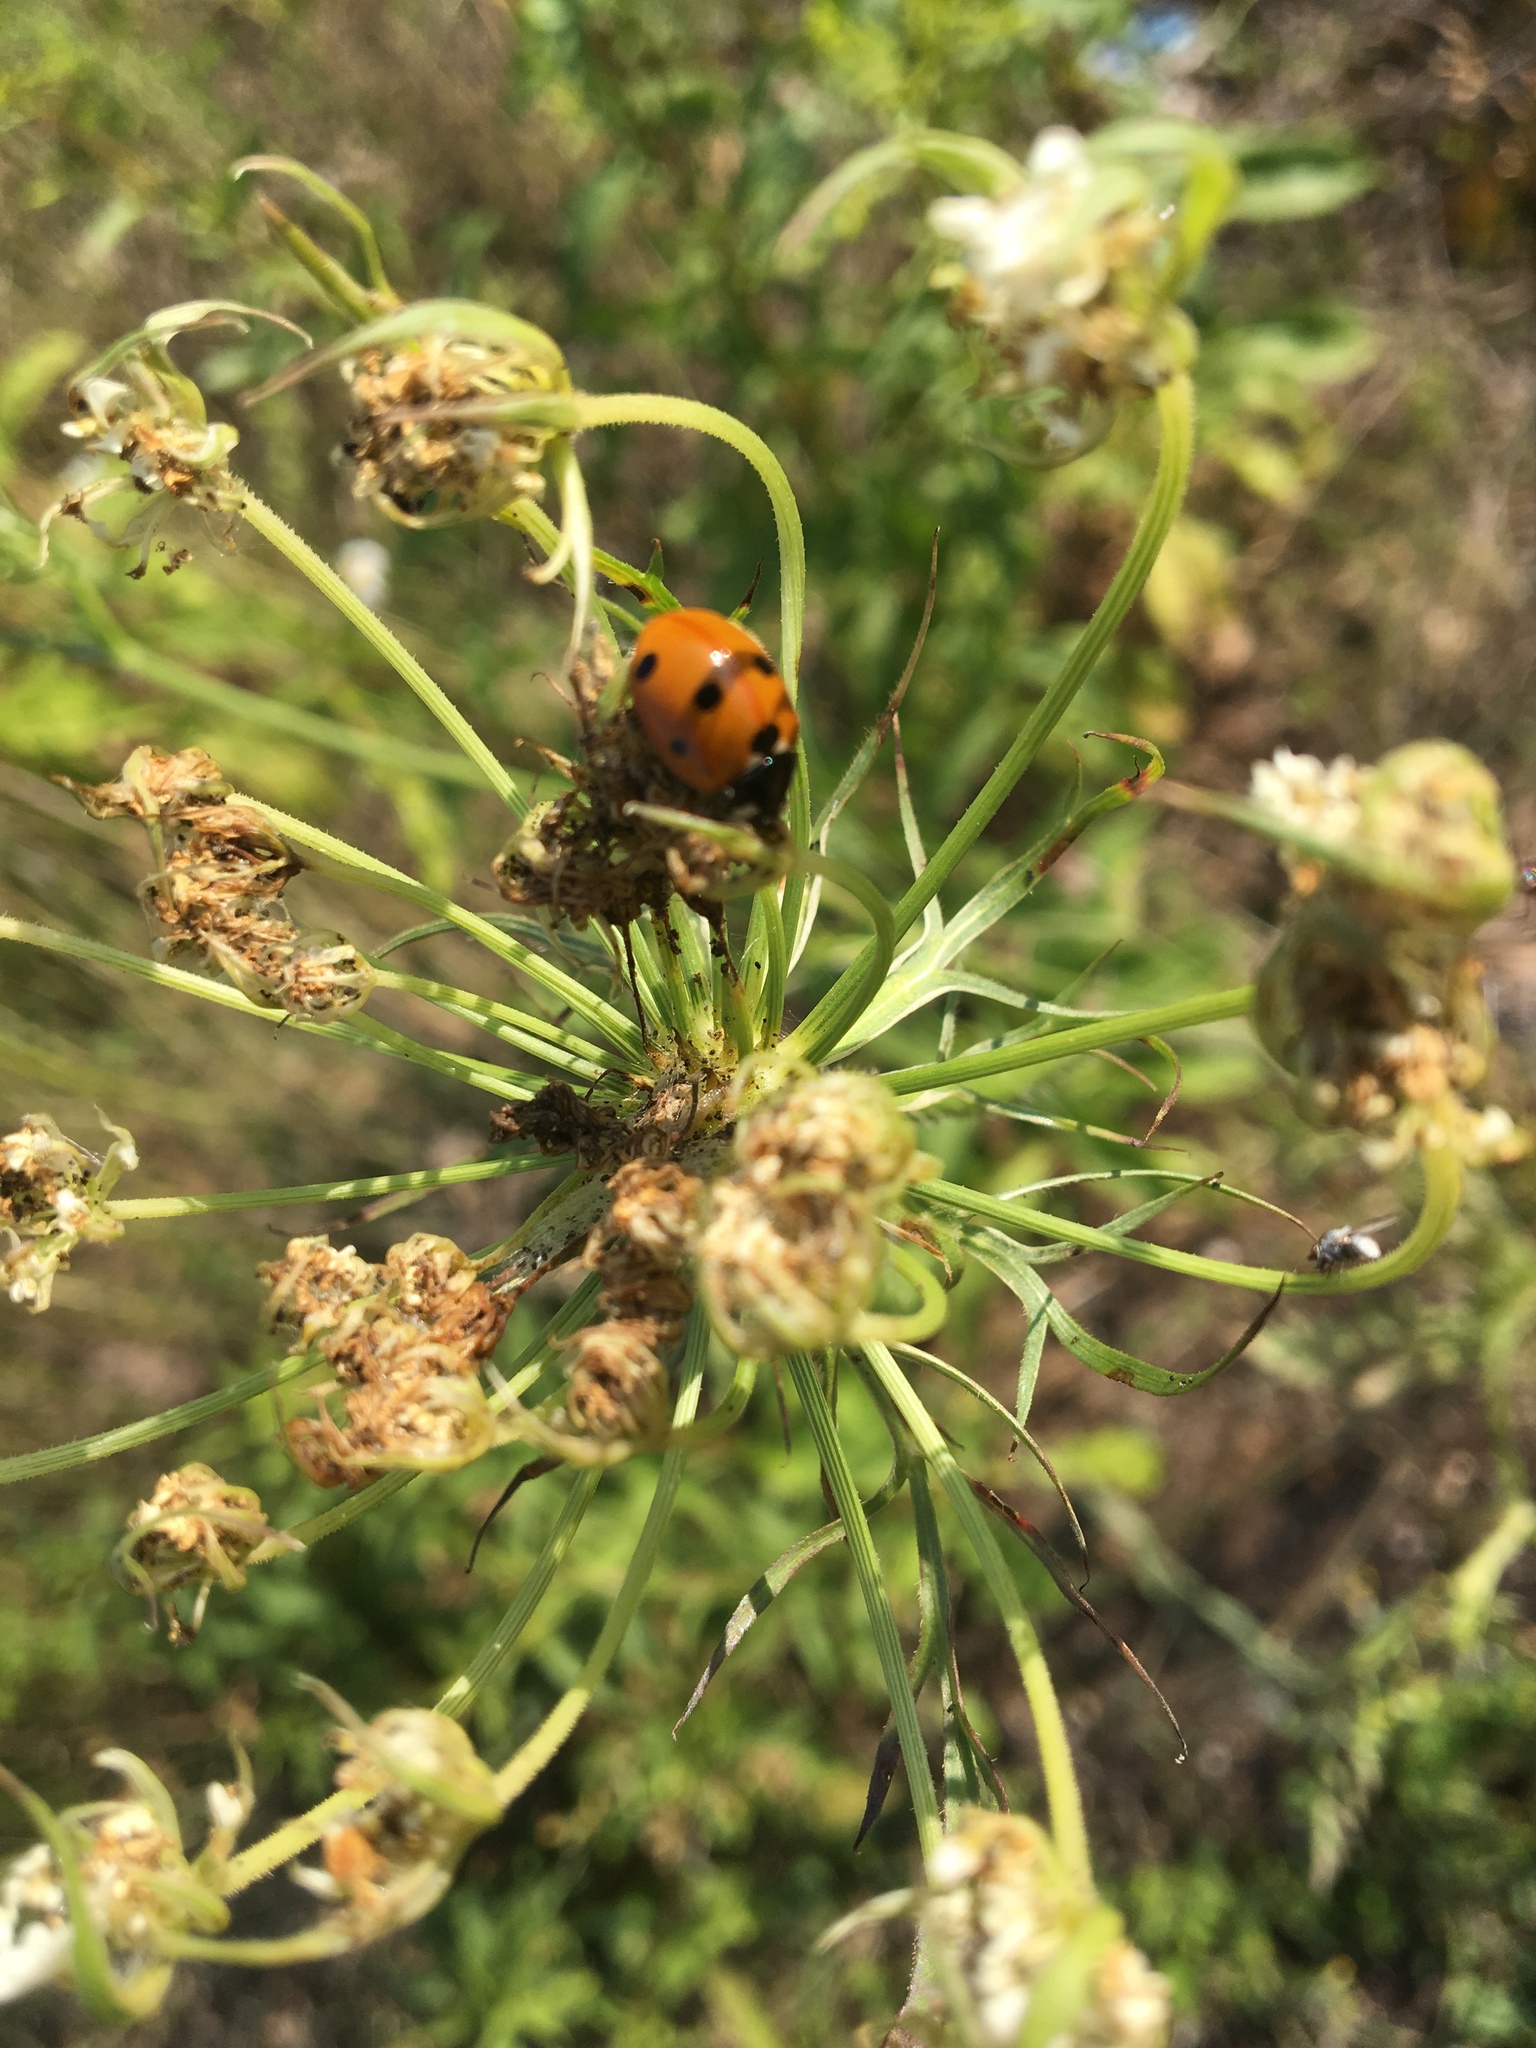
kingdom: Animalia
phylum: Arthropoda
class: Insecta
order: Coleoptera
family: Coccinellidae
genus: Coccinella
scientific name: Coccinella septempunctata
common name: Sevenspotted lady beetle
